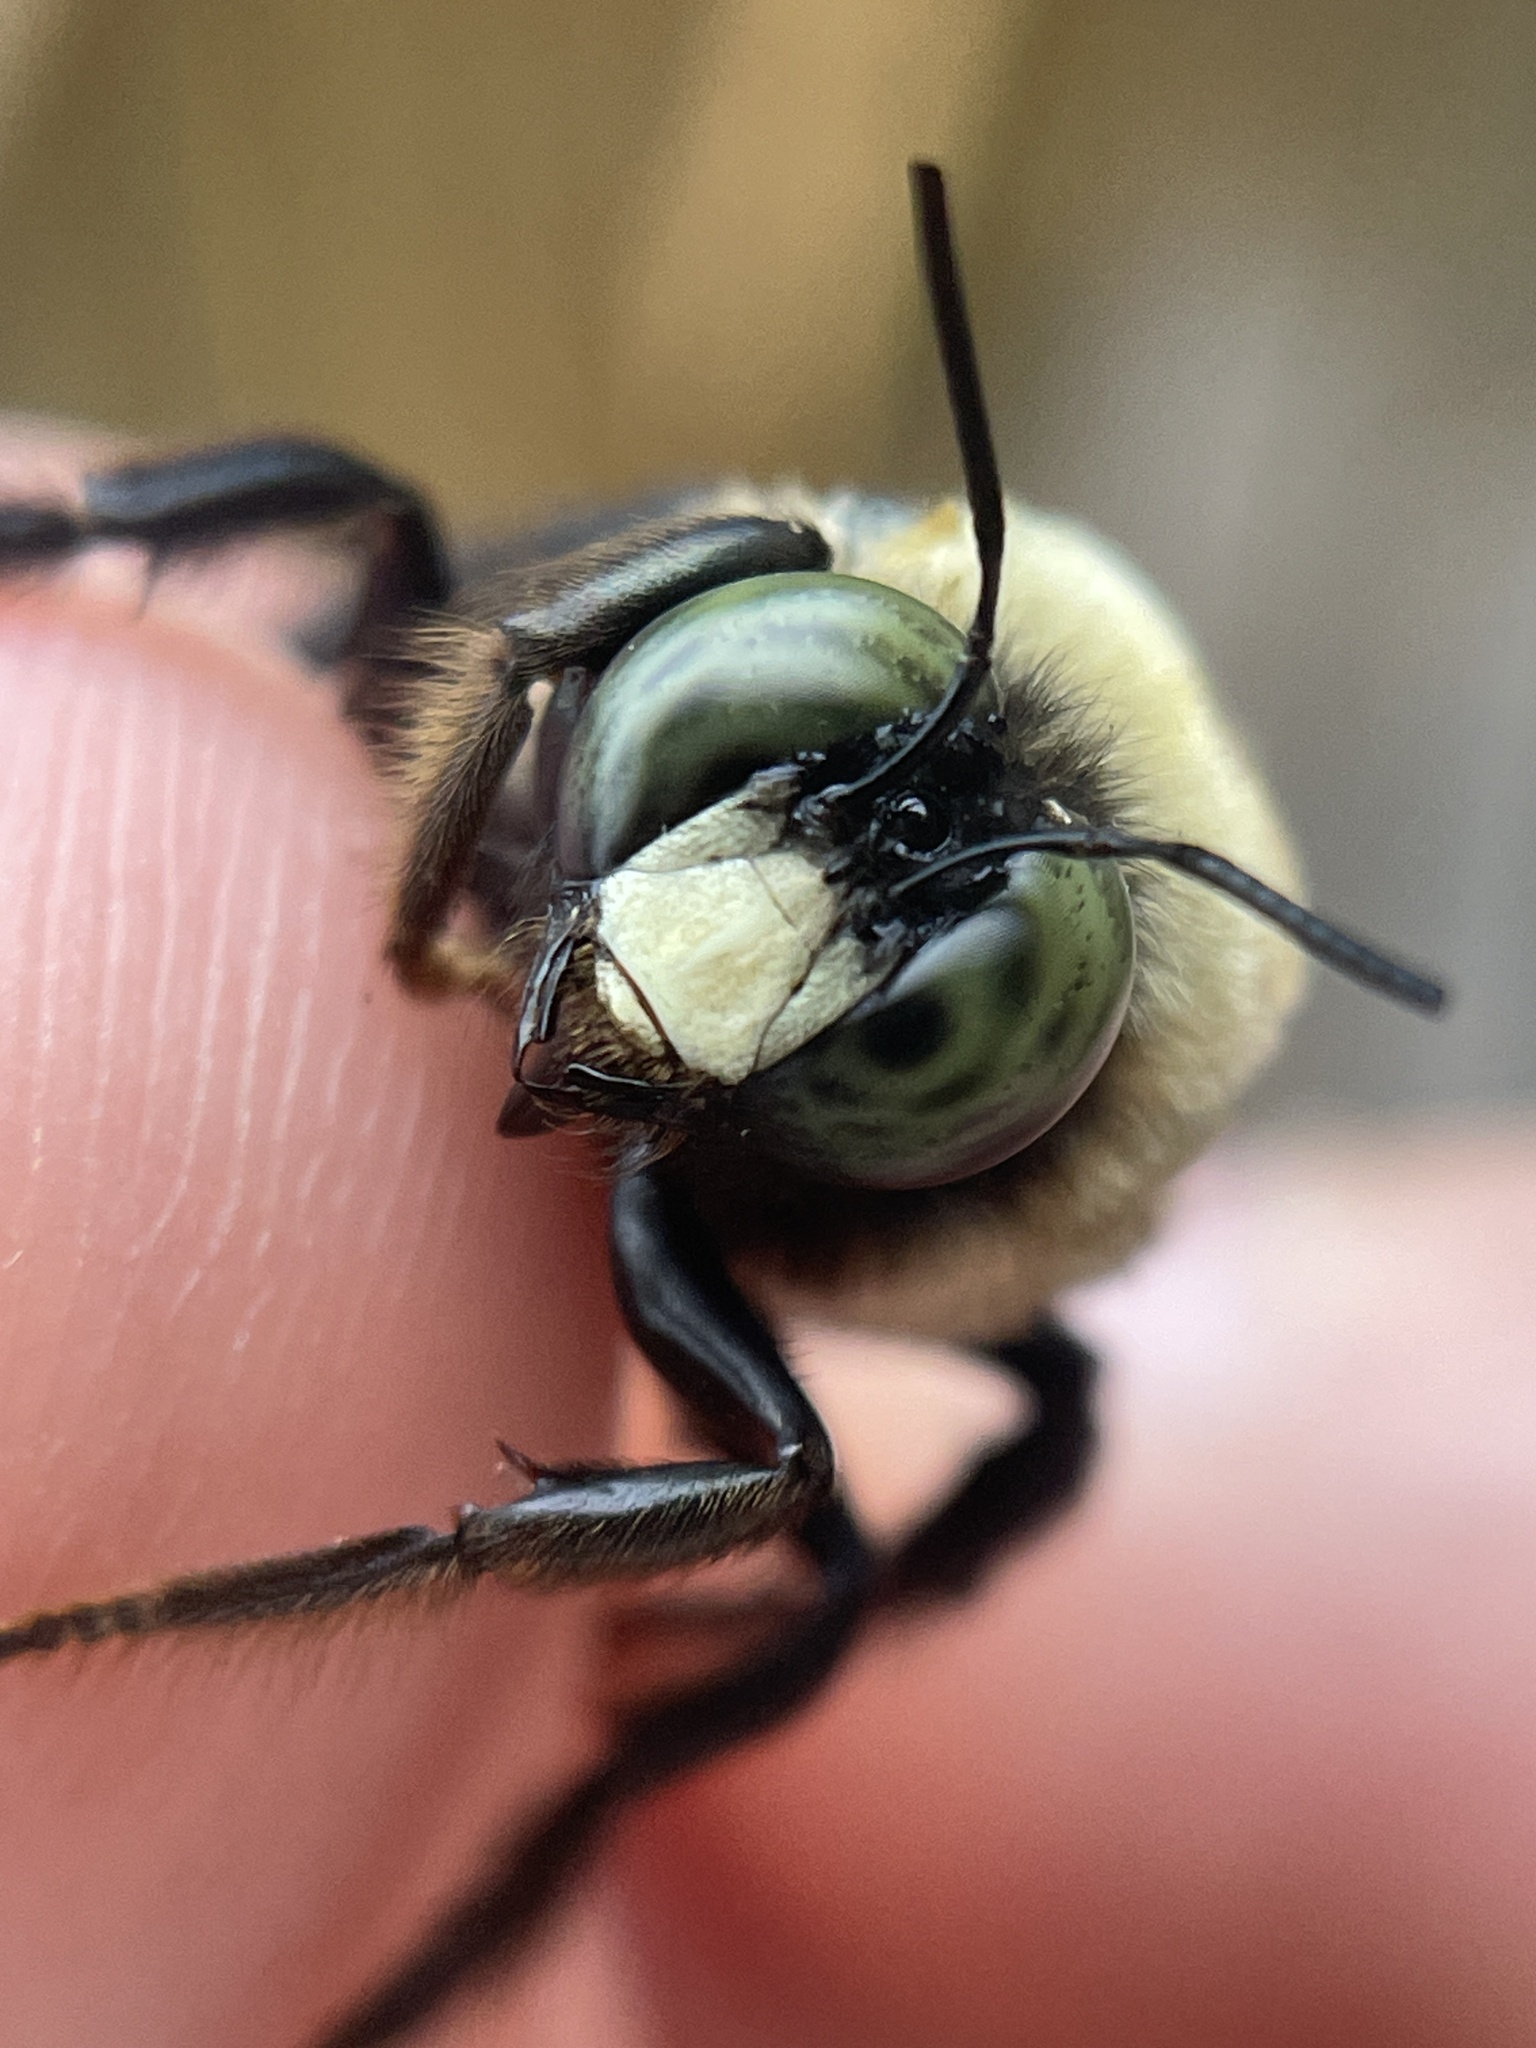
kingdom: Animalia
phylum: Arthropoda
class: Insecta
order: Hymenoptera
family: Apidae
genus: Xylocopa
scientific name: Xylocopa virginica
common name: Carpenter bee
